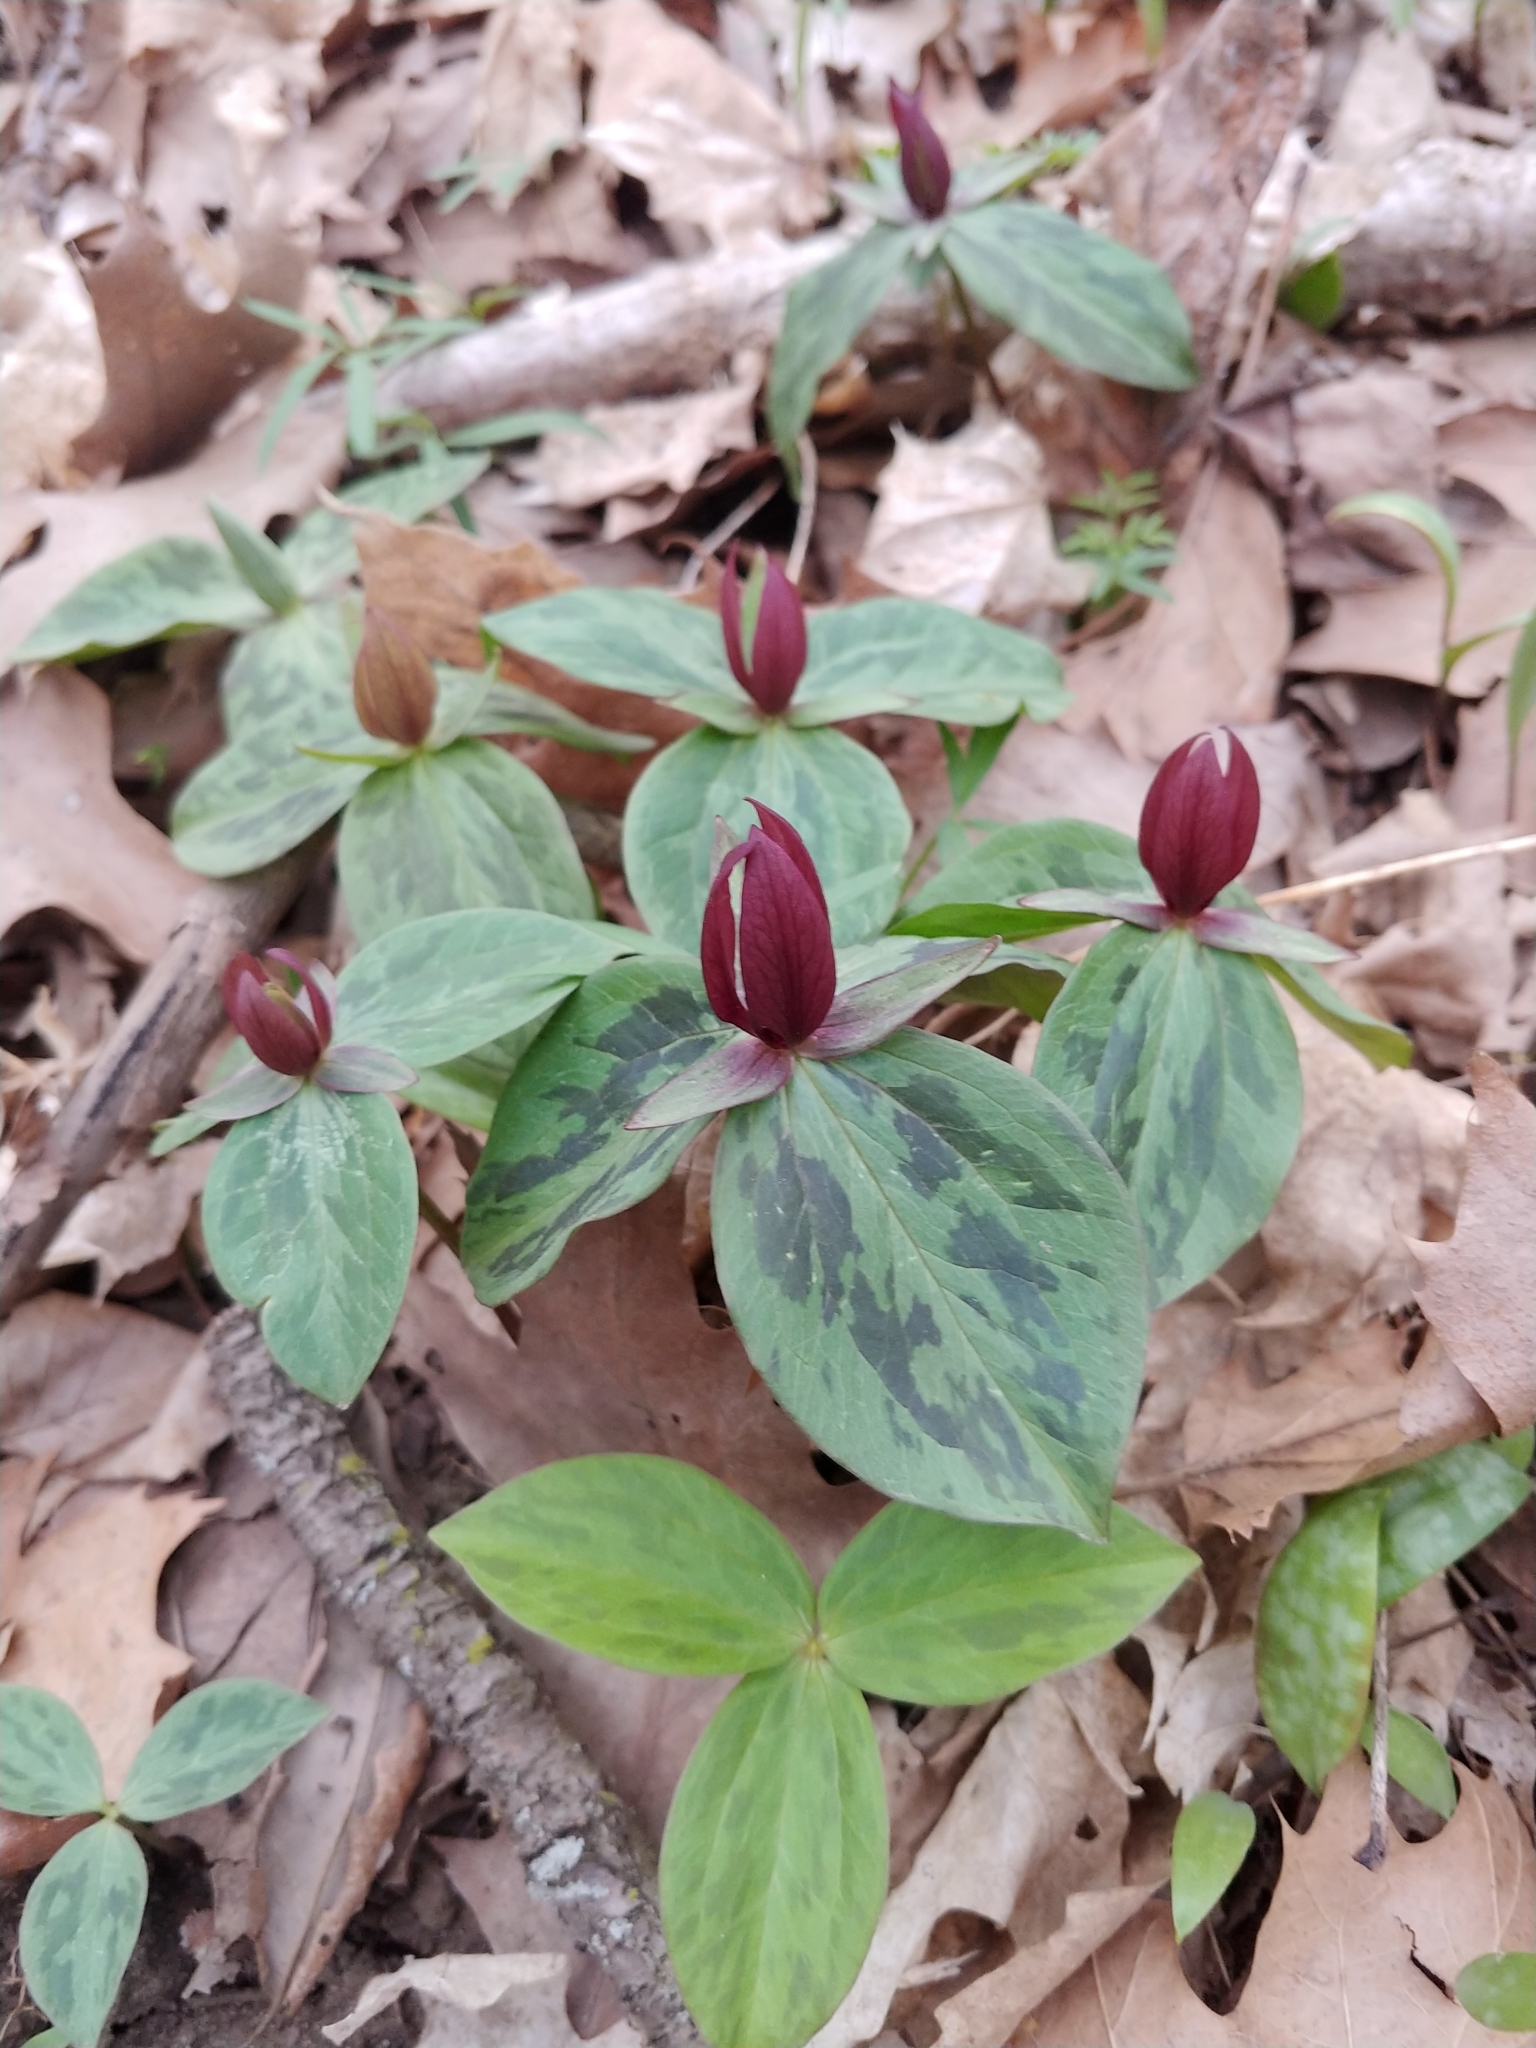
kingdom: Plantae
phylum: Tracheophyta
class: Liliopsida
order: Liliales
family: Melanthiaceae
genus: Trillium
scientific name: Trillium sessile
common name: Sessile trillium
